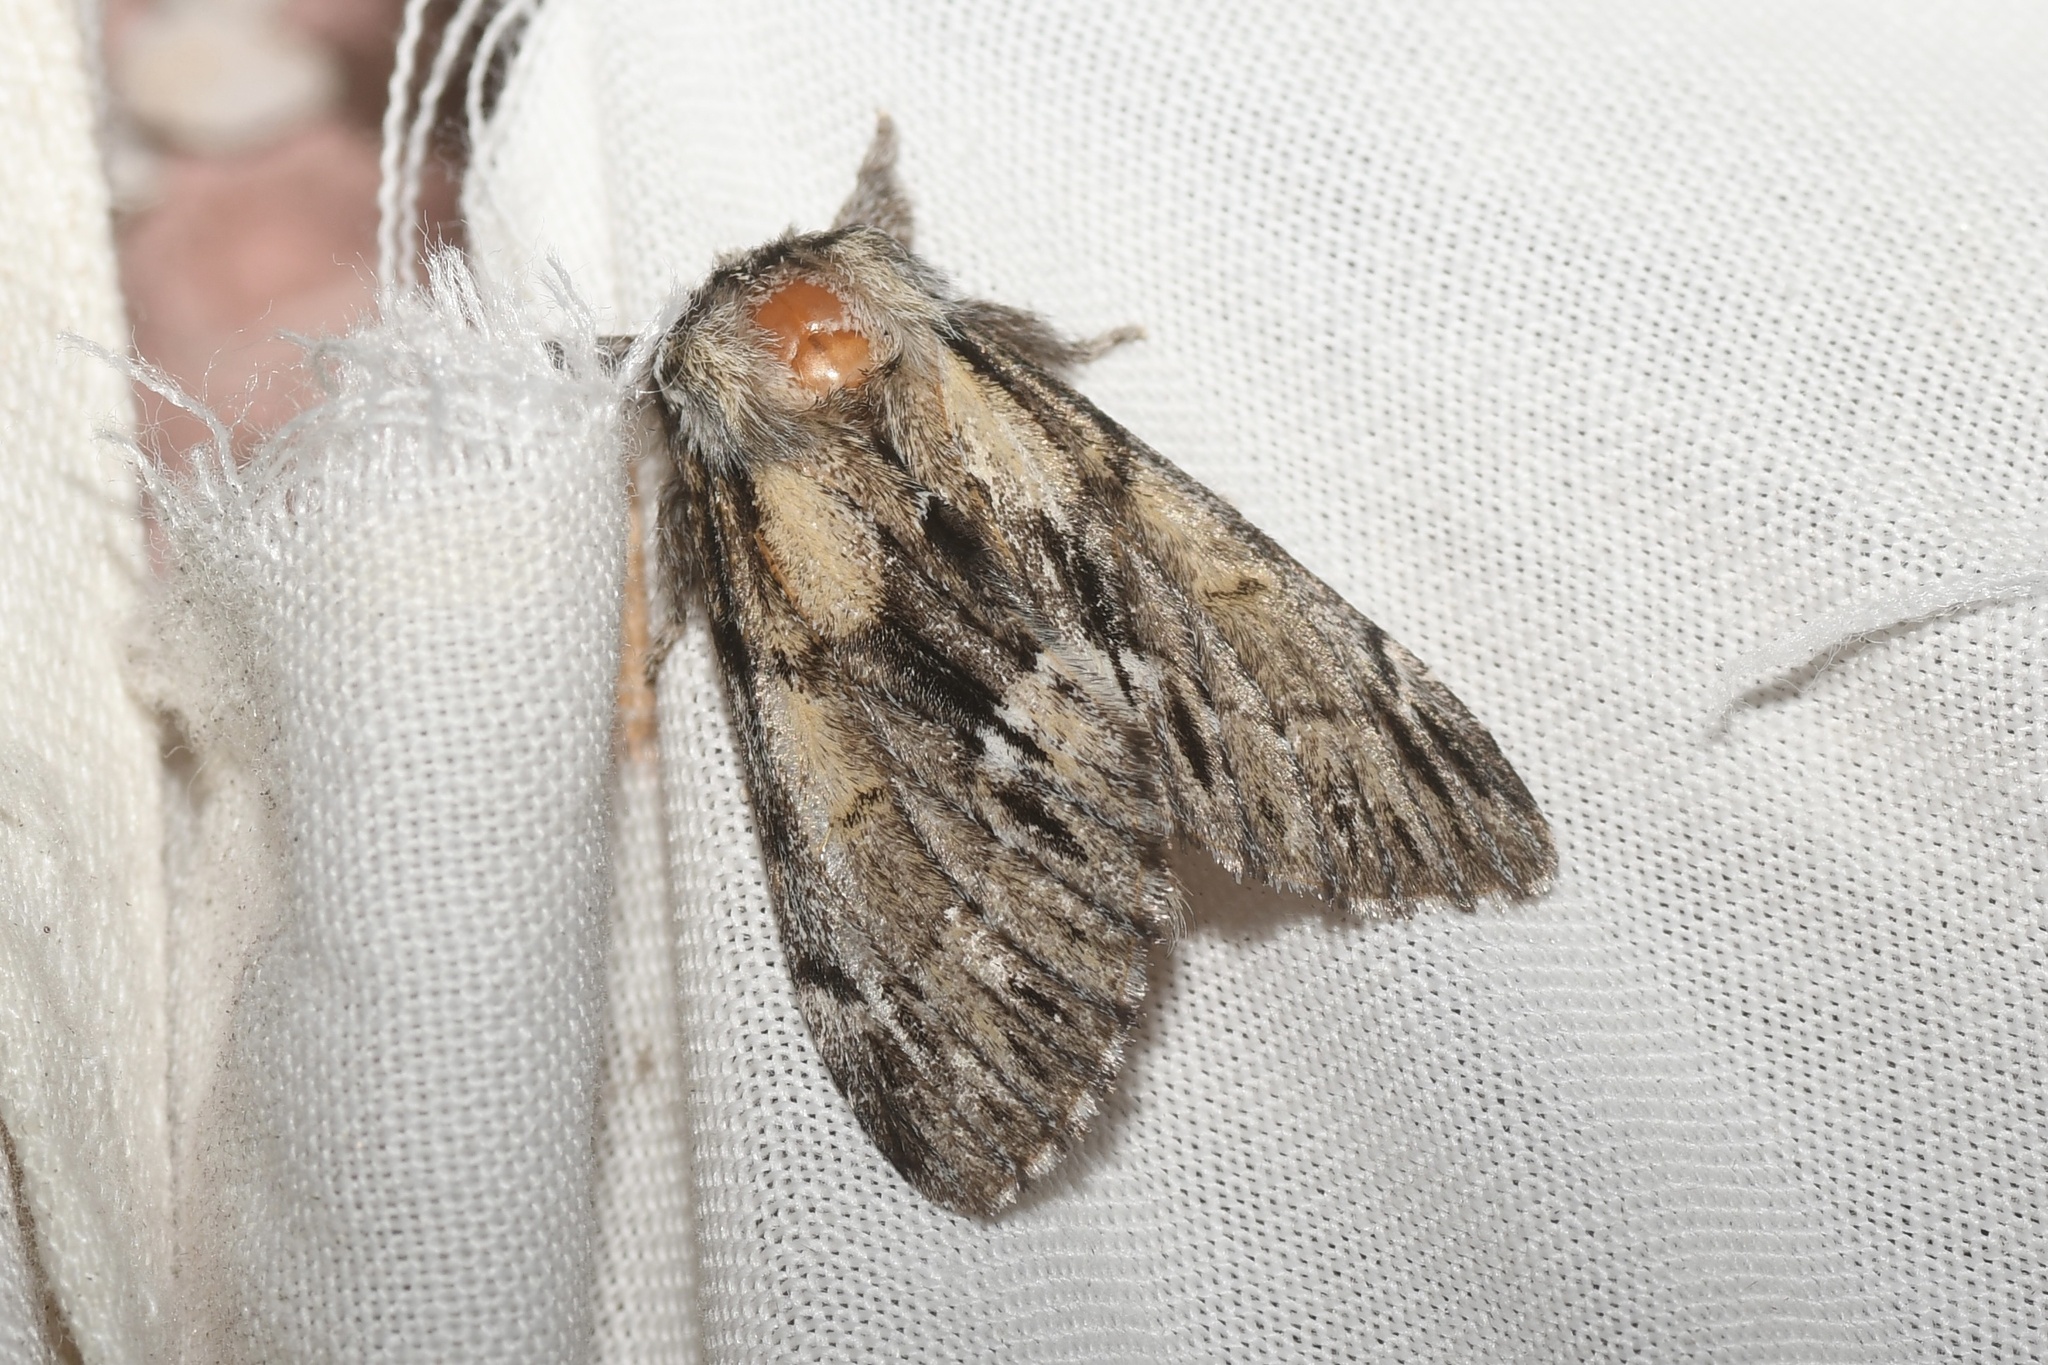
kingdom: Animalia
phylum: Arthropoda
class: Insecta
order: Lepidoptera
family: Notodontidae
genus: Paraeschra
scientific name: Paraeschra georgica
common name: Georgian prominent
